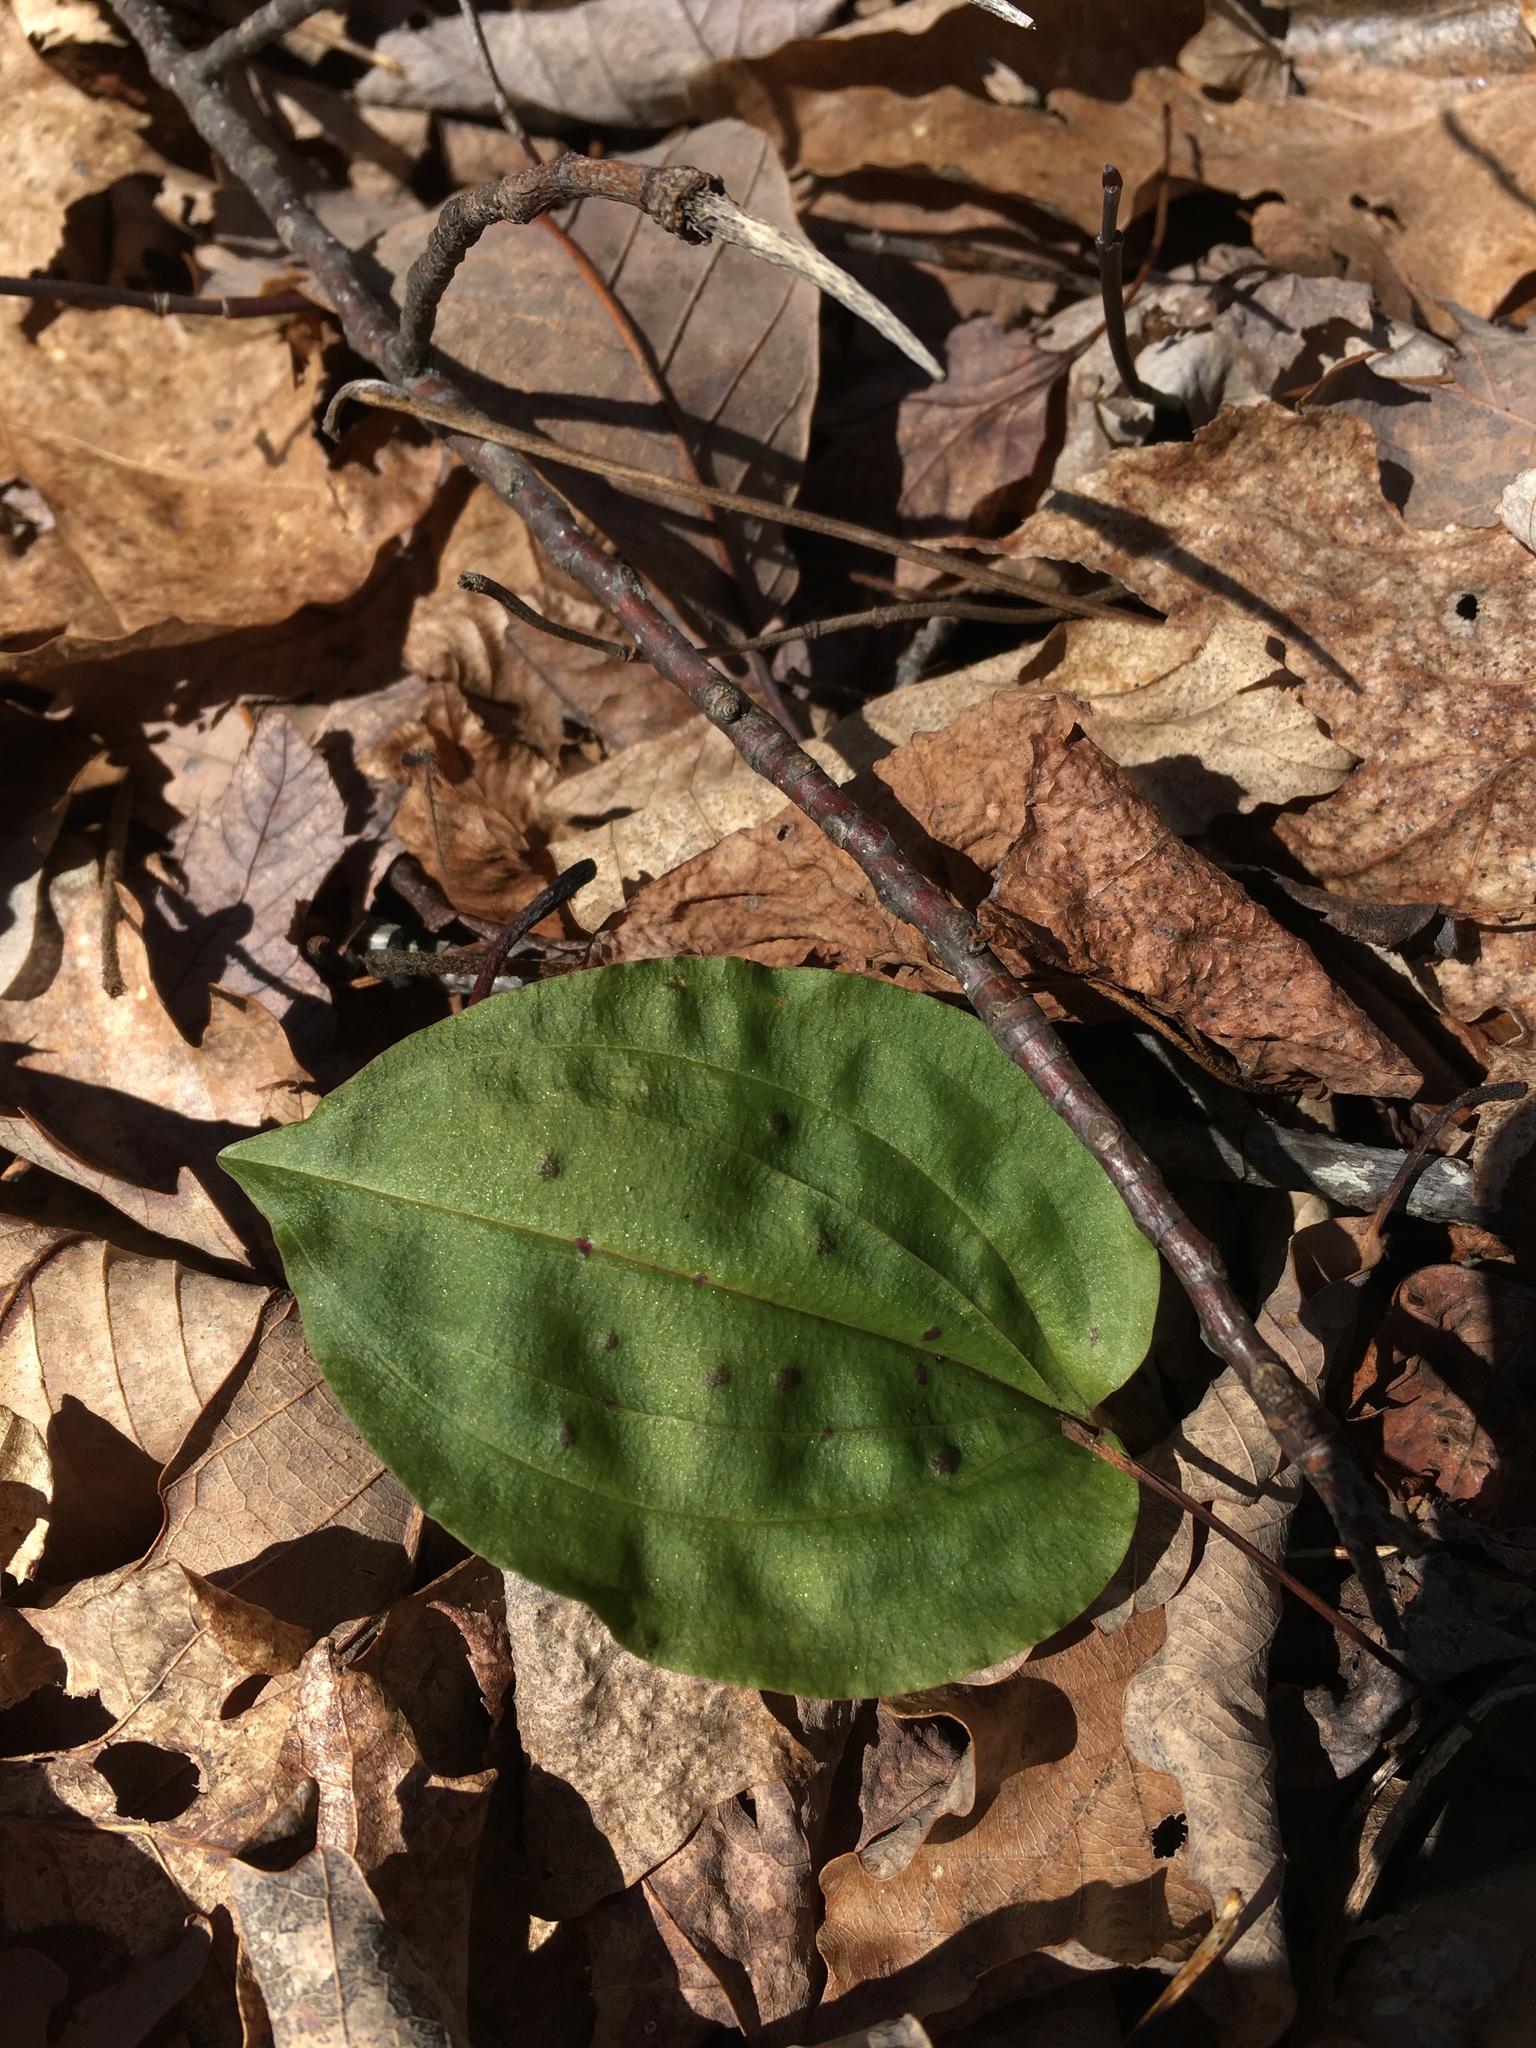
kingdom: Plantae
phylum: Tracheophyta
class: Liliopsida
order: Asparagales
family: Orchidaceae
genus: Tipularia
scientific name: Tipularia discolor
